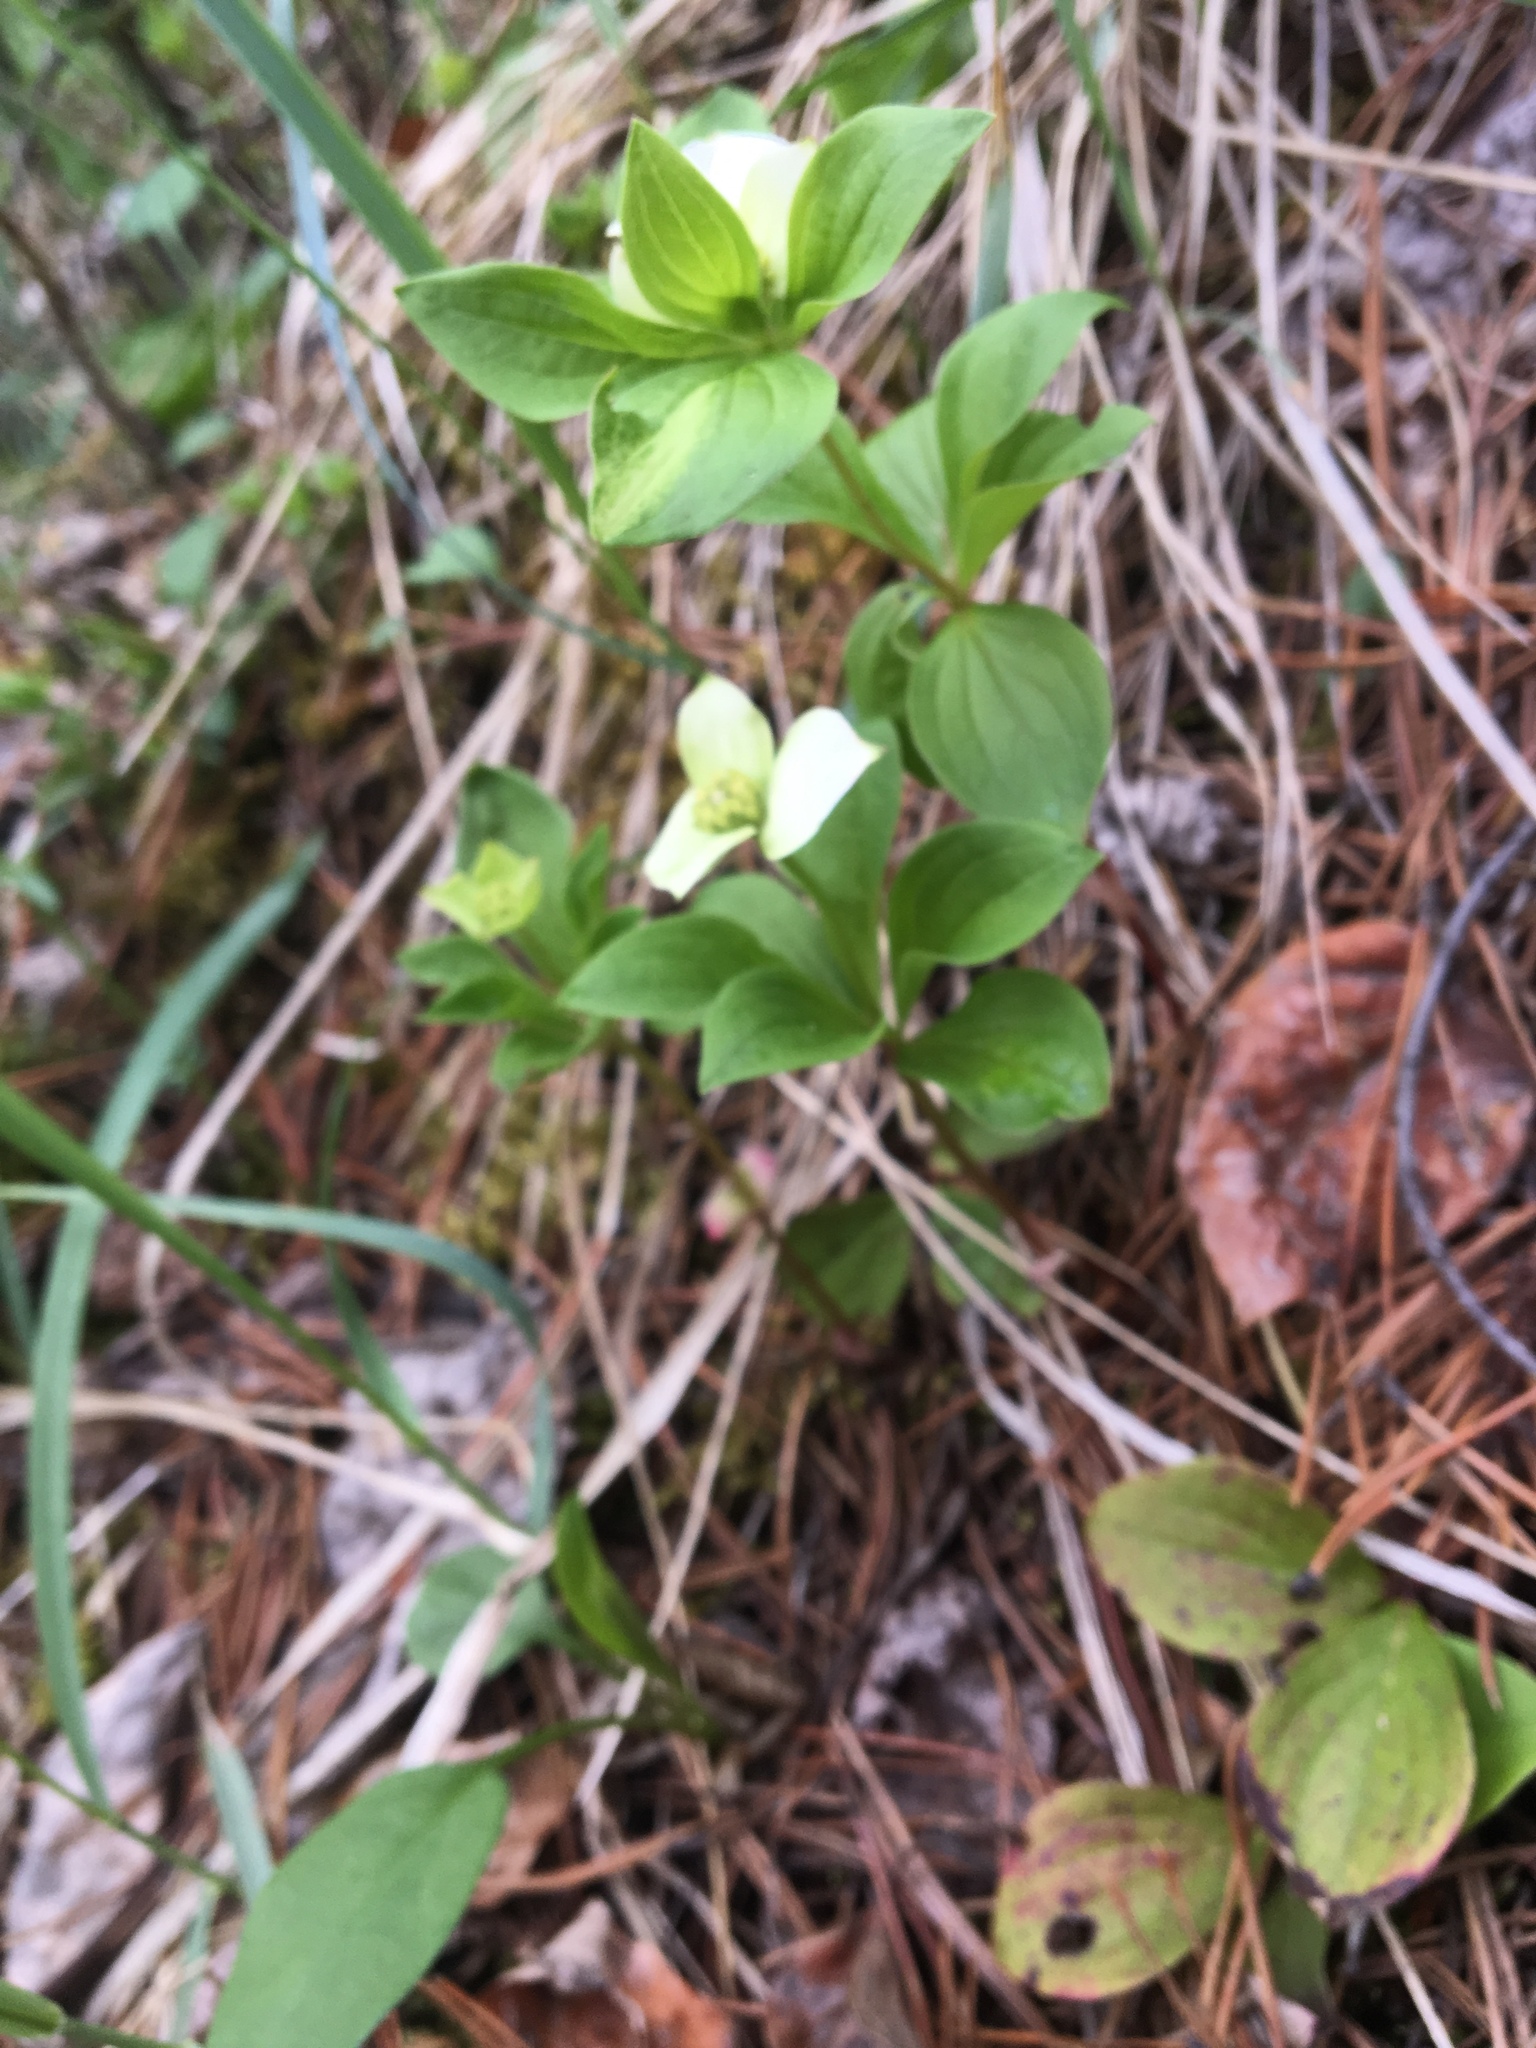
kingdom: Plantae
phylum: Tracheophyta
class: Magnoliopsida
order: Cornales
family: Cornaceae
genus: Cornus
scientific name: Cornus canadensis
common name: Creeping dogwood
